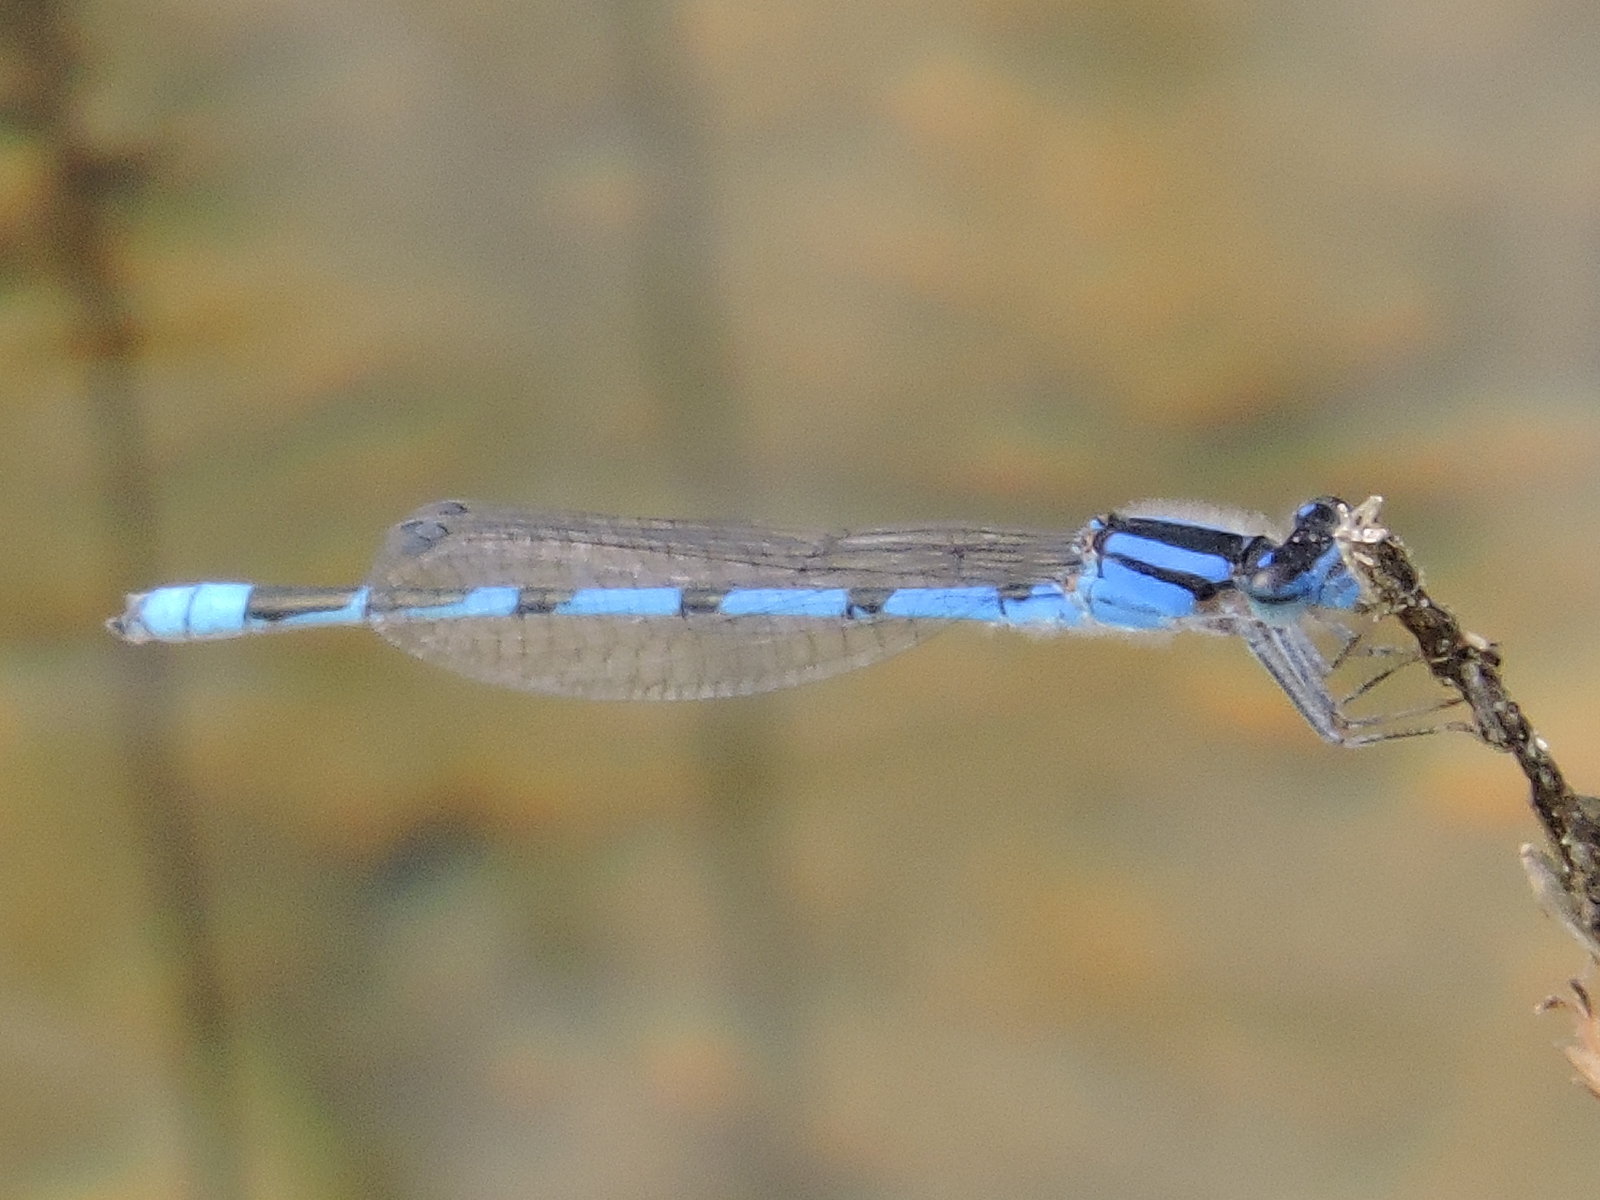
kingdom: Animalia
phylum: Arthropoda
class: Insecta
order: Odonata
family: Coenagrionidae
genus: Enallagma
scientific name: Enallagma civile
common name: Damselfly
